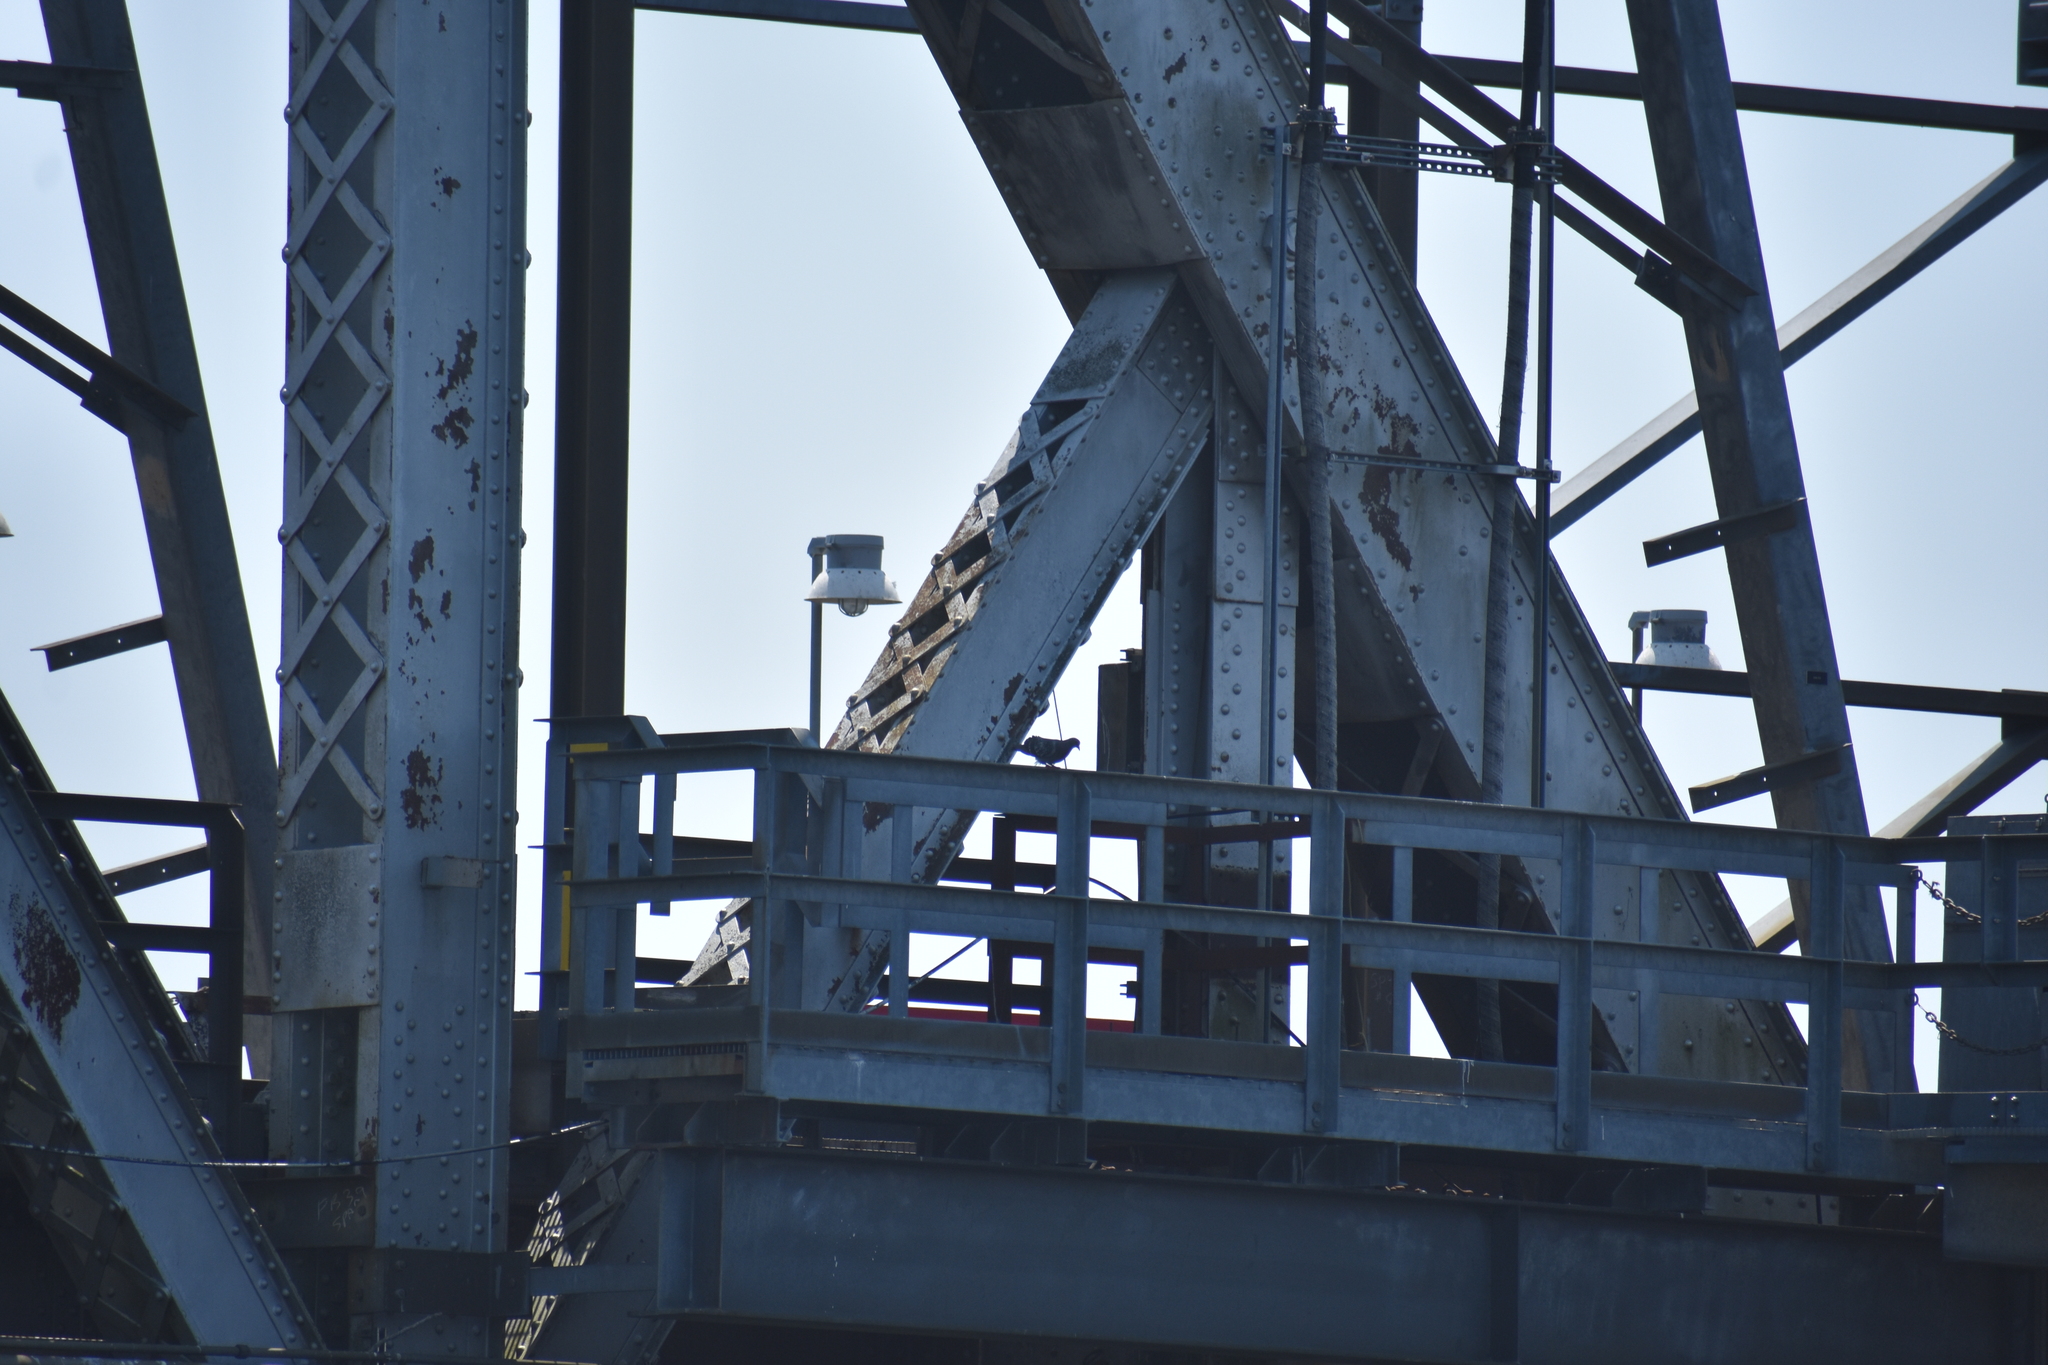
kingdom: Animalia
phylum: Chordata
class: Aves
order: Columbiformes
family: Columbidae
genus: Columba
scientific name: Columba livia
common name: Rock pigeon
